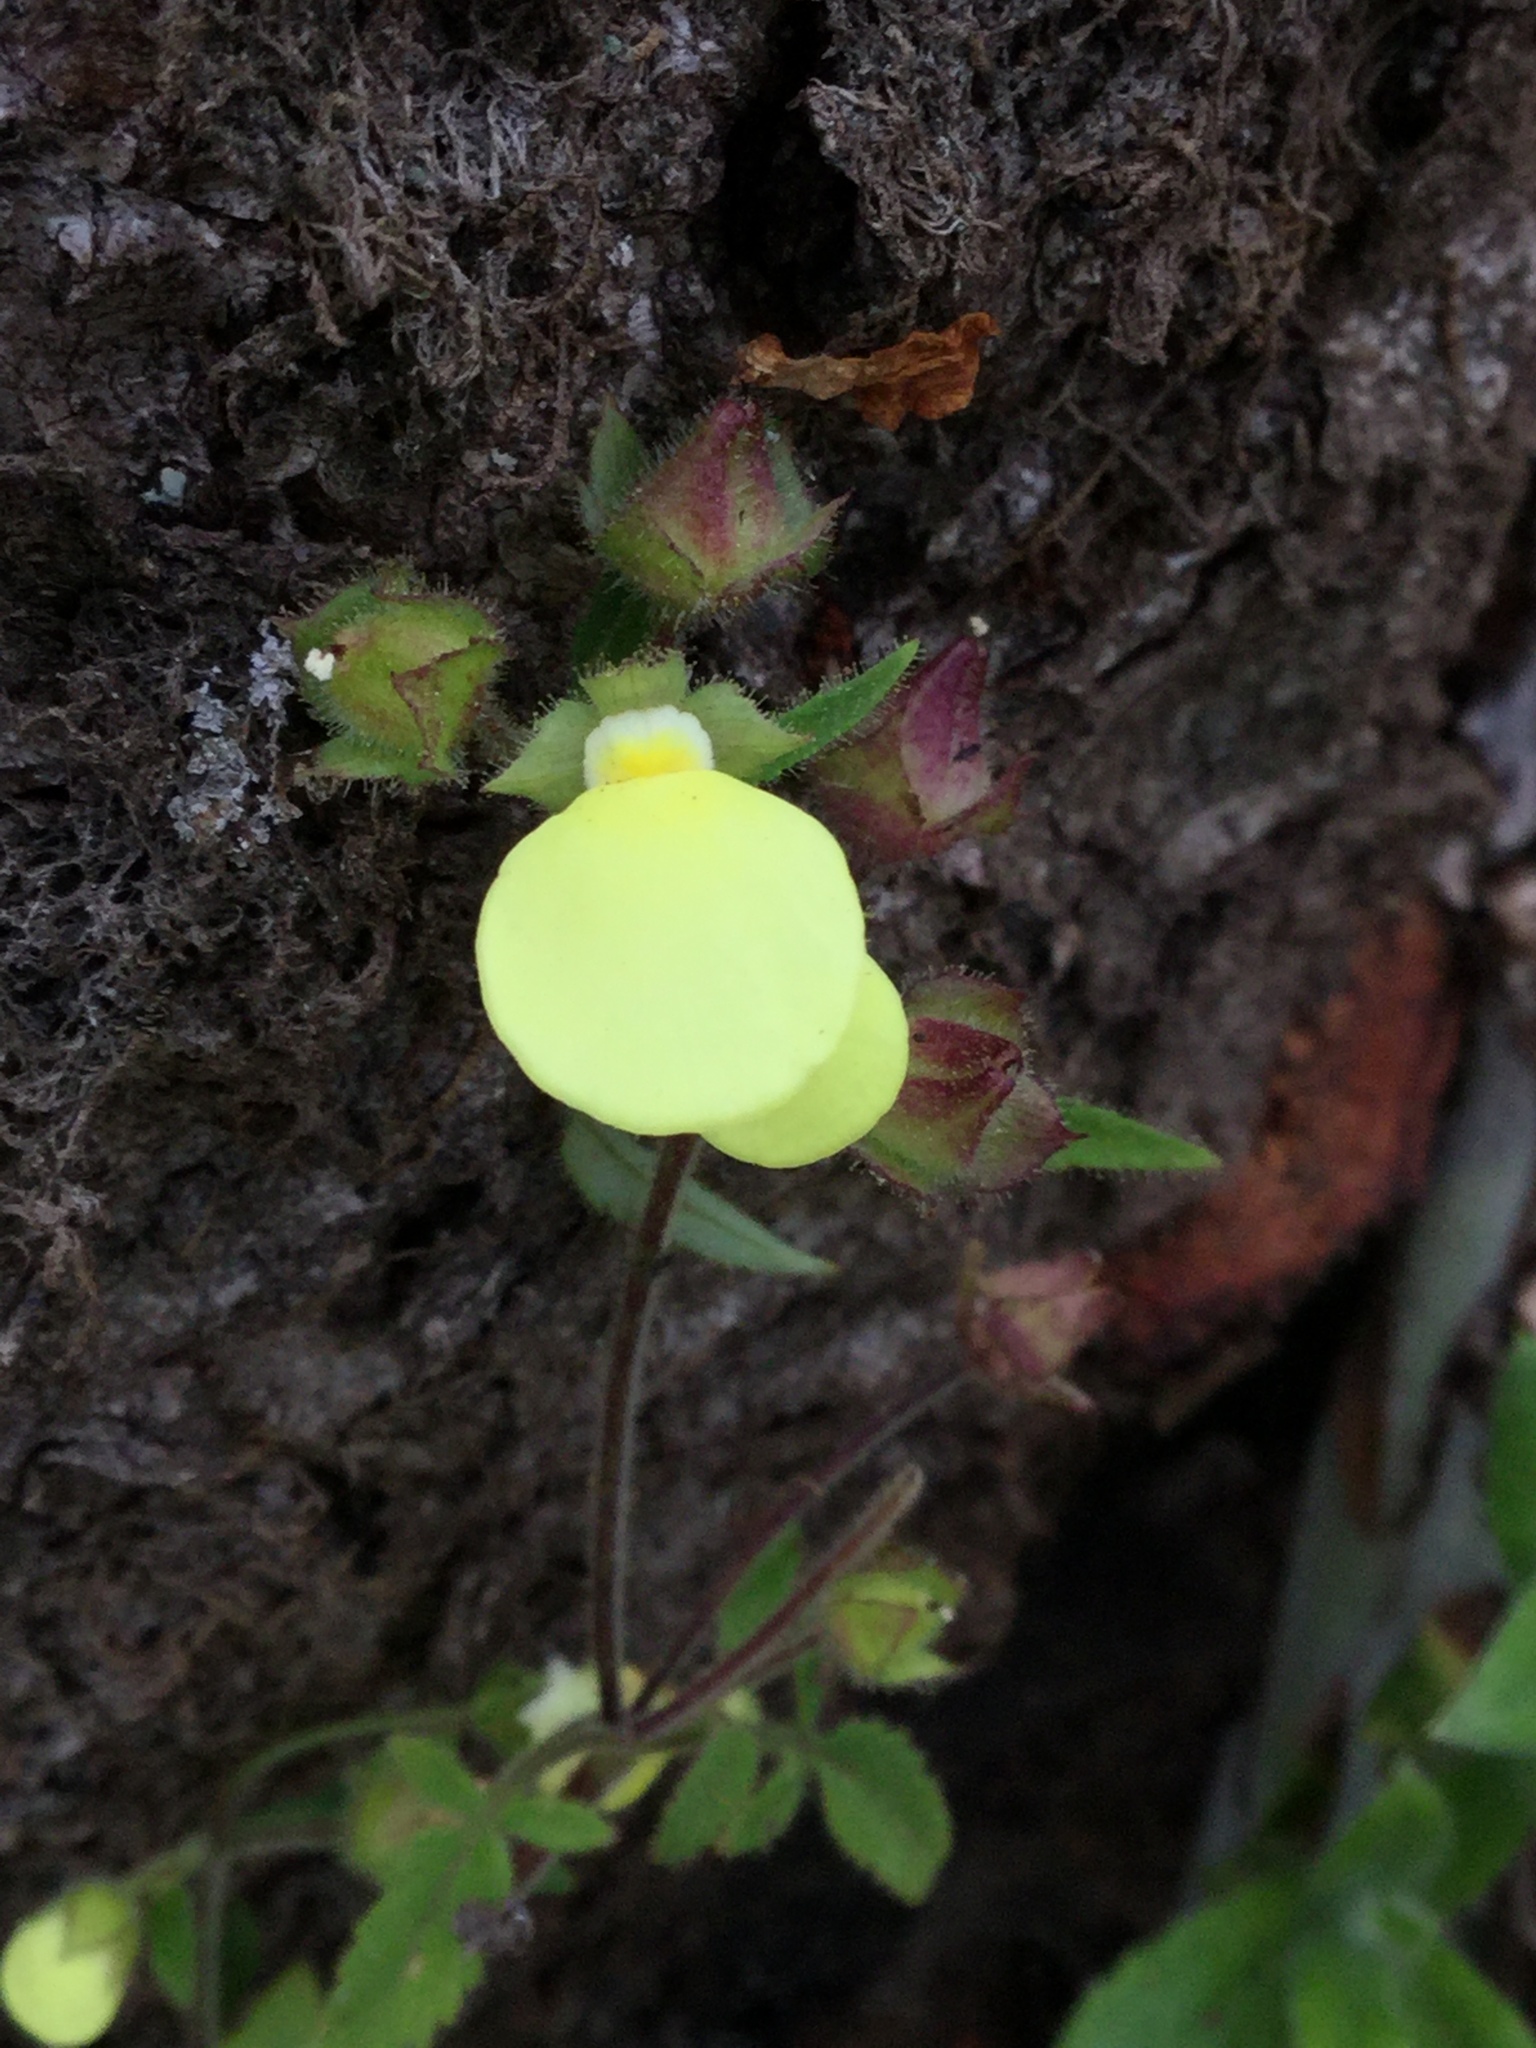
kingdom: Plantae
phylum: Tracheophyta
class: Magnoliopsida
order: Lamiales
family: Calceolariaceae
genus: Calceolaria
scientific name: Calceolaria tripartita
